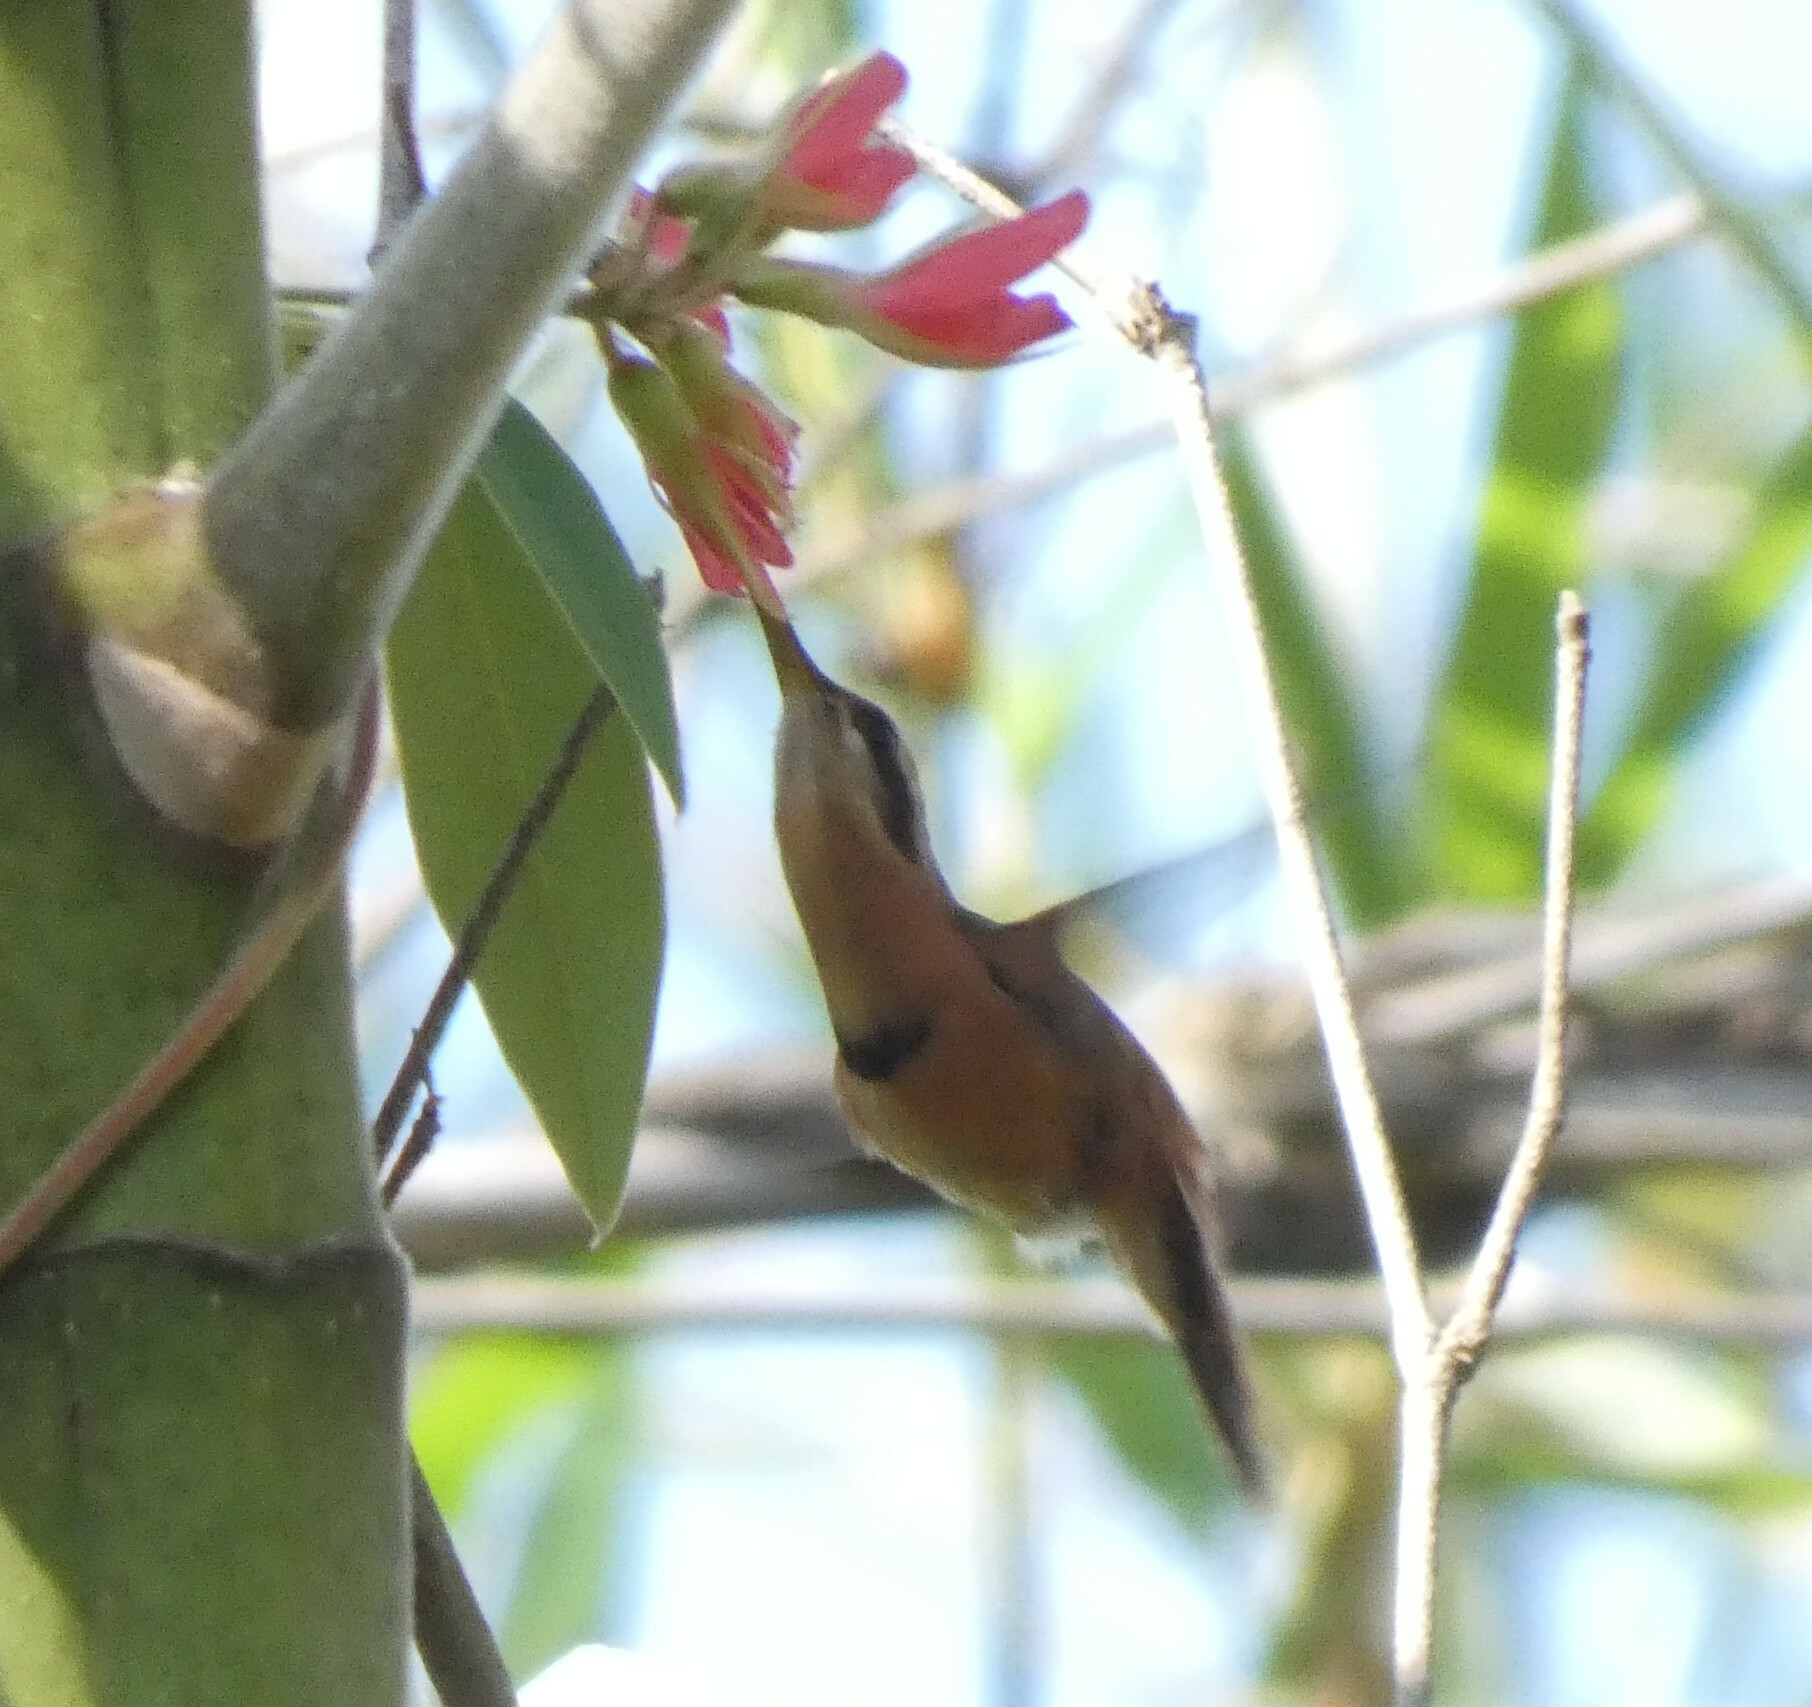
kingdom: Animalia
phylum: Chordata
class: Aves
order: Apodiformes
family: Trochilidae
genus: Phaethornis
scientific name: Phaethornis ruber
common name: Reddish hermit
